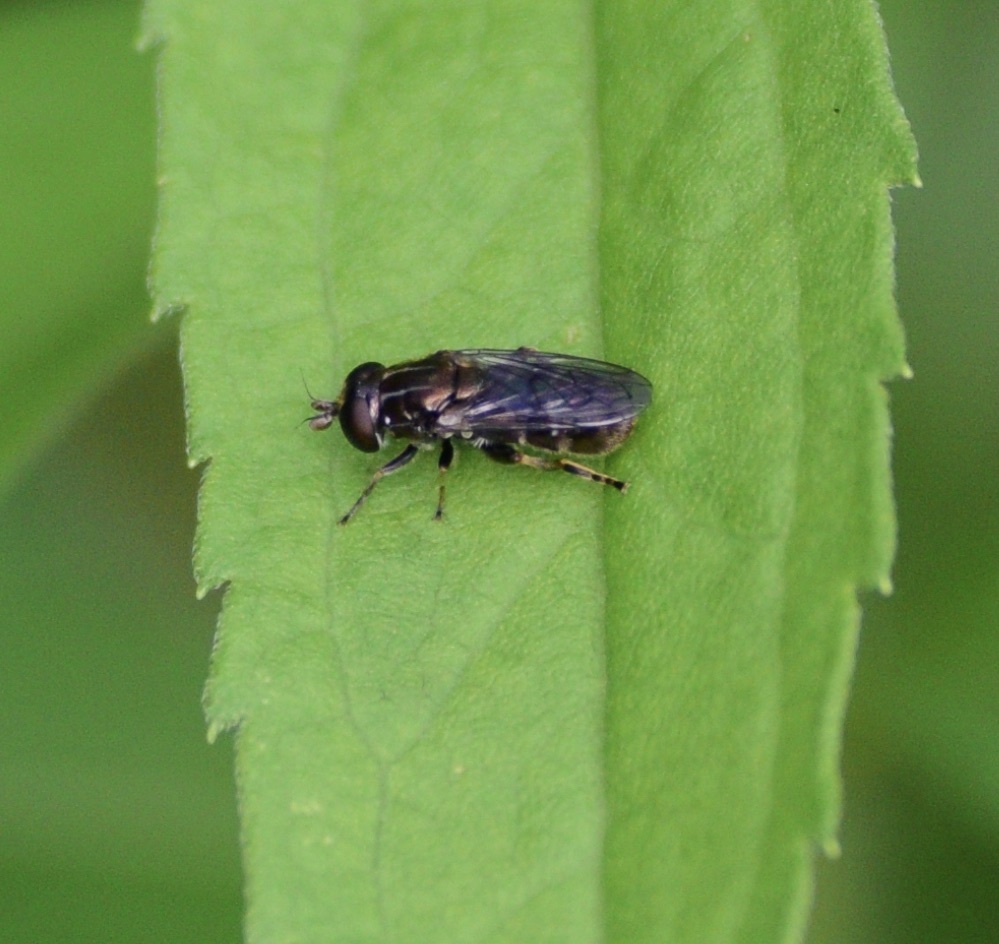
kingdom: Animalia
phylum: Arthropoda
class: Insecta
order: Diptera
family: Syrphidae
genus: Eumerus
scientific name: Eumerus
